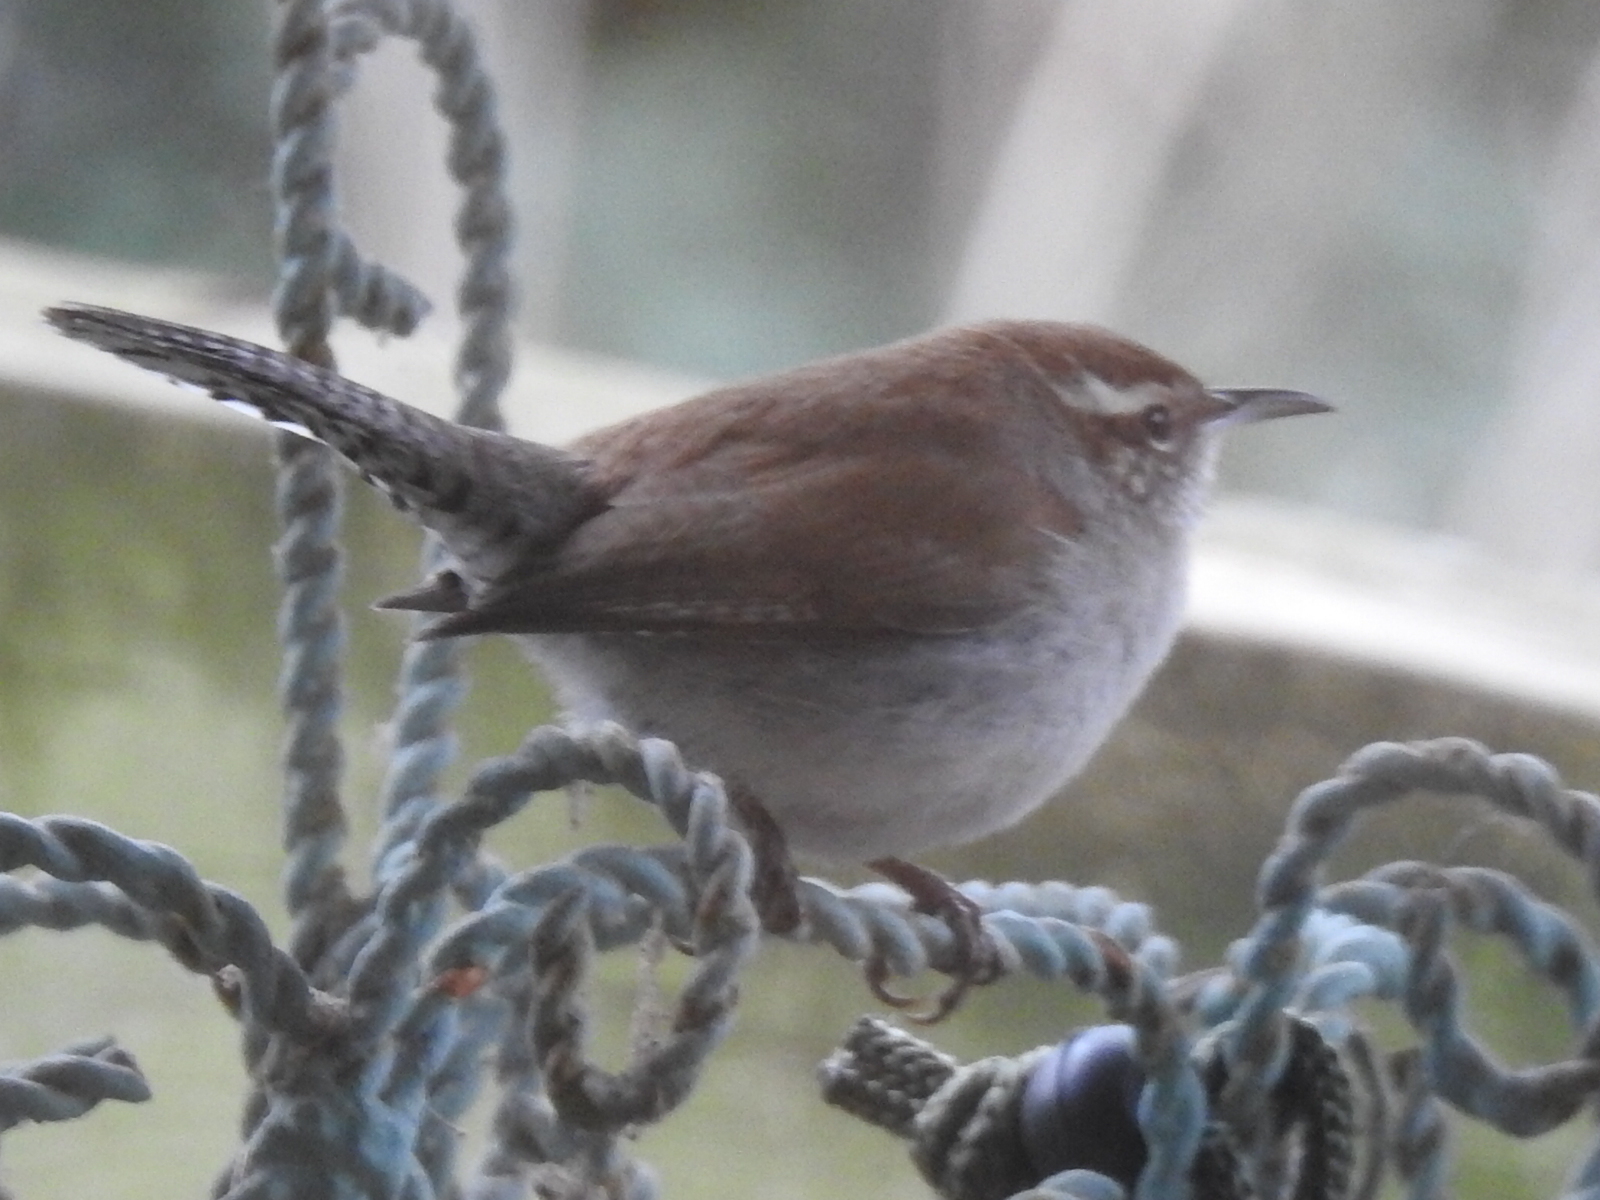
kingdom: Animalia
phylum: Chordata
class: Aves
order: Passeriformes
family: Troglodytidae
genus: Thryomanes
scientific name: Thryomanes bewickii
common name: Bewick's wren
